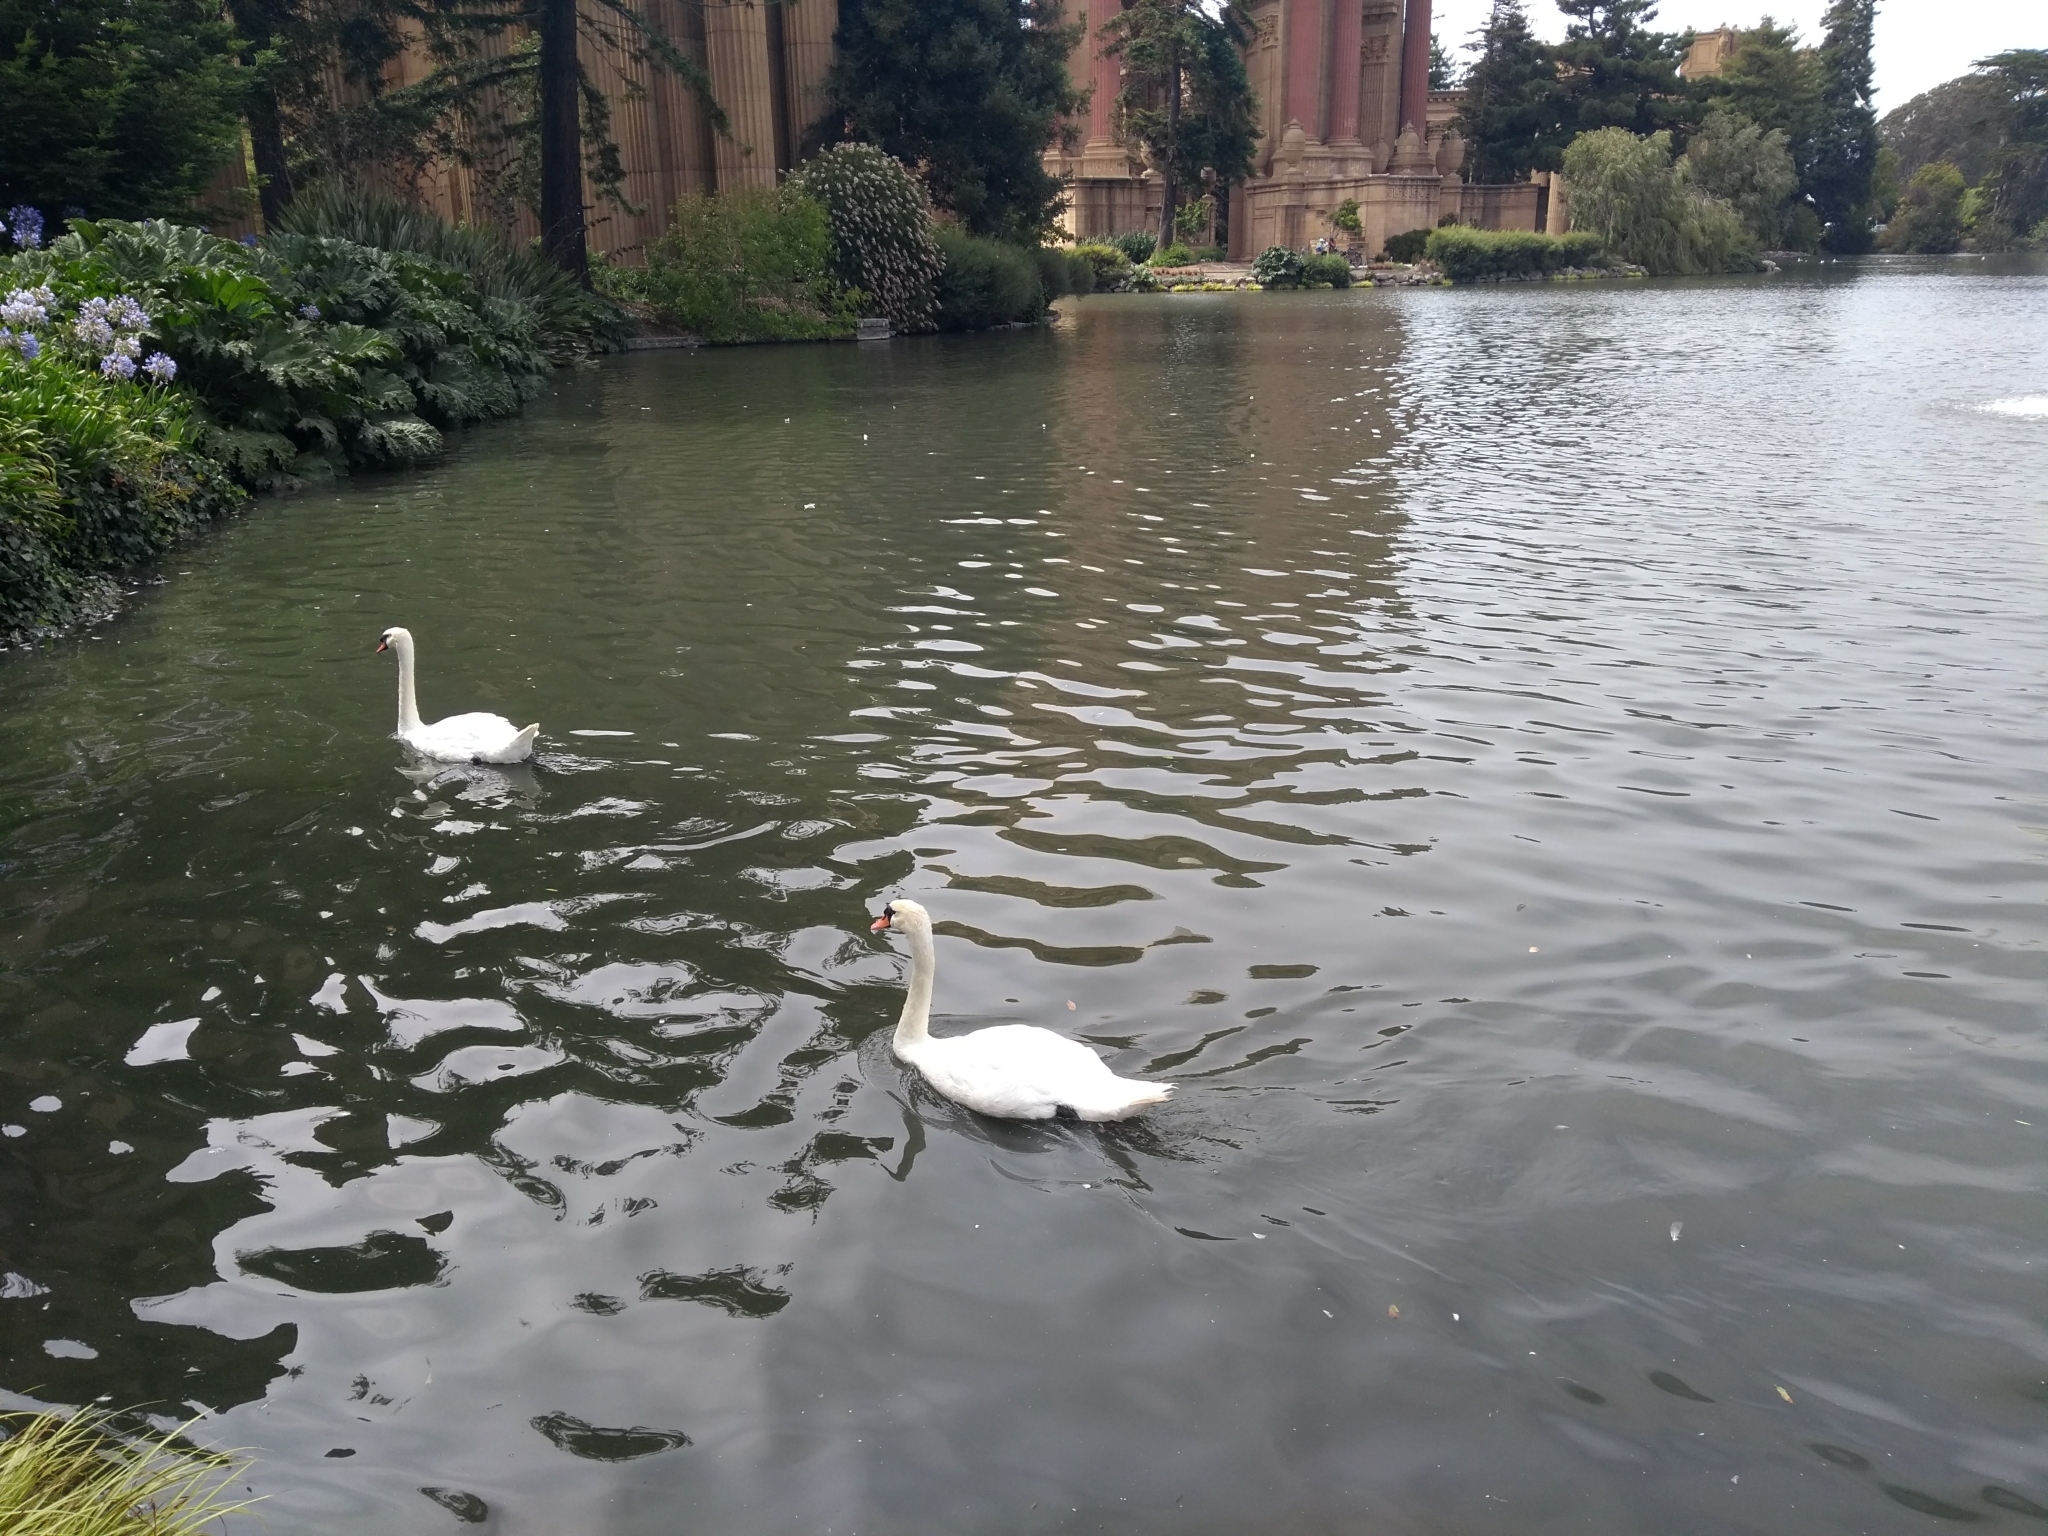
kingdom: Animalia
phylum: Chordata
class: Aves
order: Anseriformes
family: Anatidae
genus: Cygnus
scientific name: Cygnus olor
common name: Mute swan
